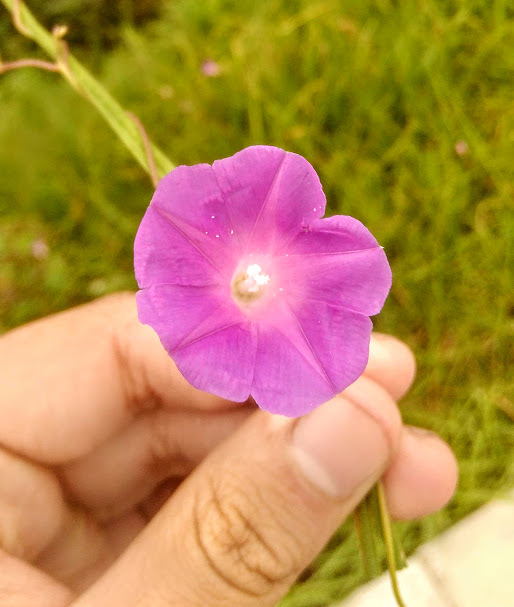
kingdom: Plantae
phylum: Tracheophyta
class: Magnoliopsida
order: Solanales
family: Convolvulaceae
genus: Ipomoea
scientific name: Ipomoea dumetorum
